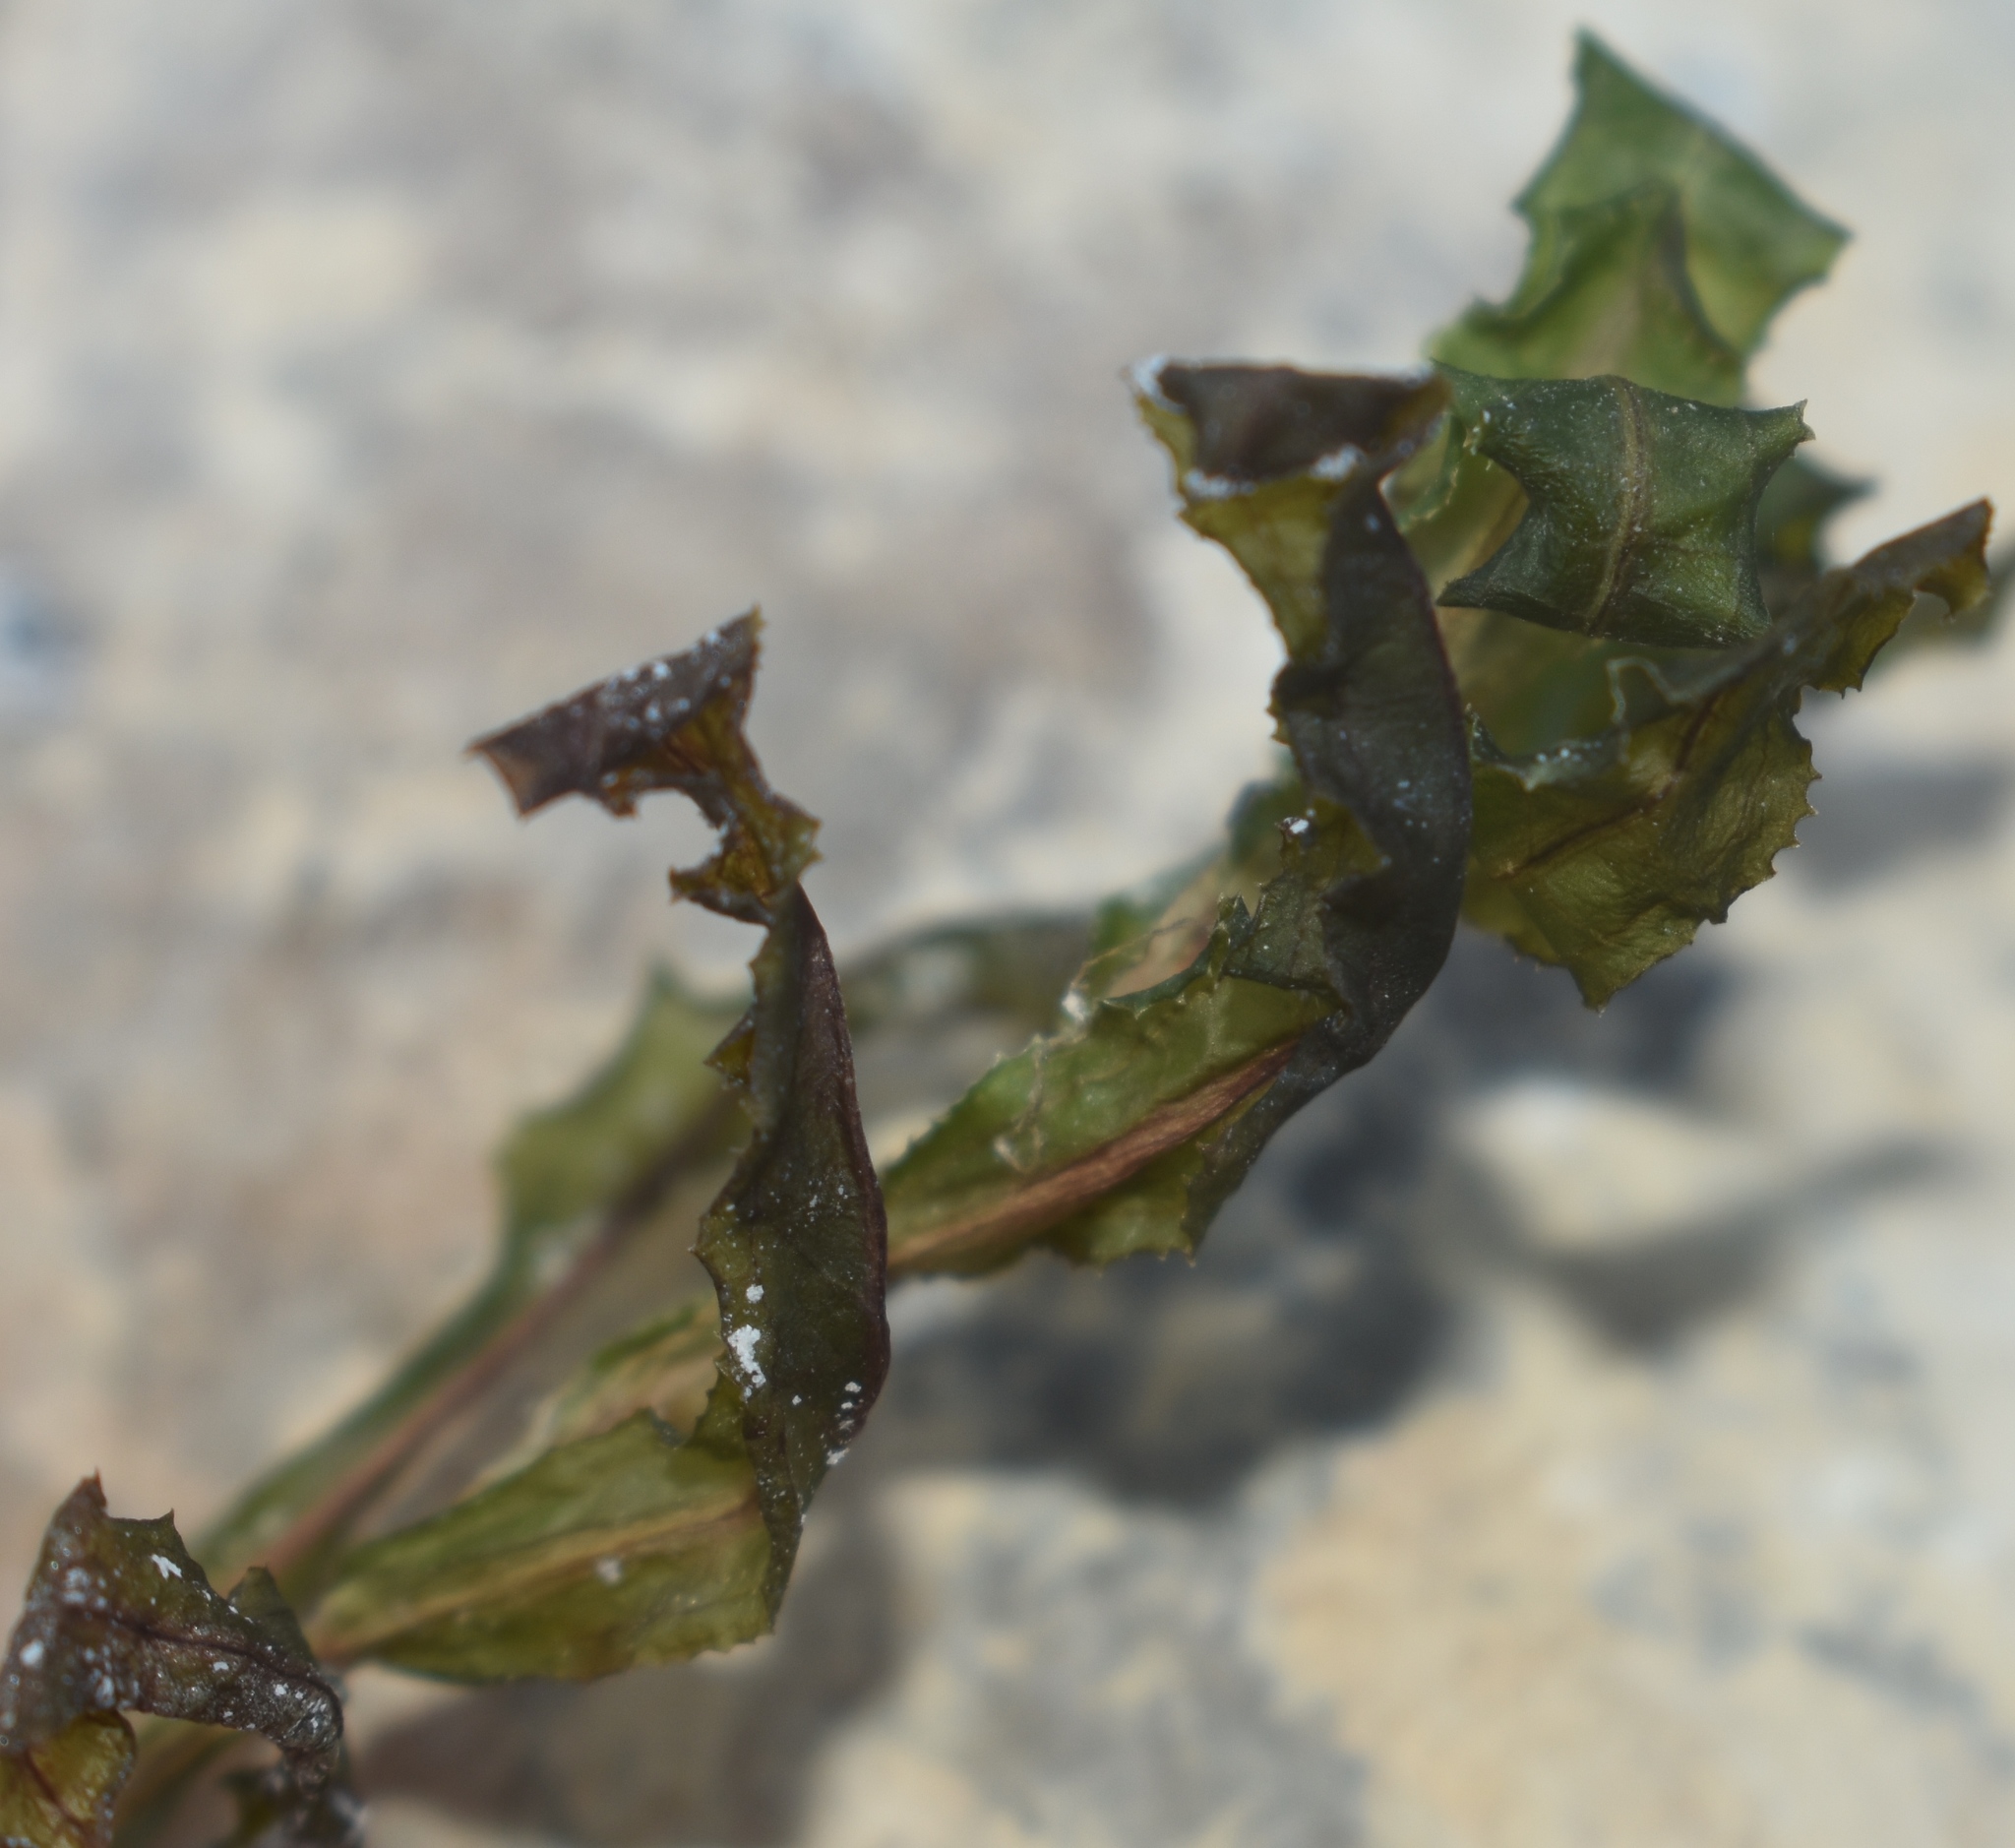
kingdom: Plantae
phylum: Tracheophyta
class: Liliopsida
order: Alismatales
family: Potamogetonaceae
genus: Potamogeton
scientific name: Potamogeton crispus
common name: Curled pondweed
